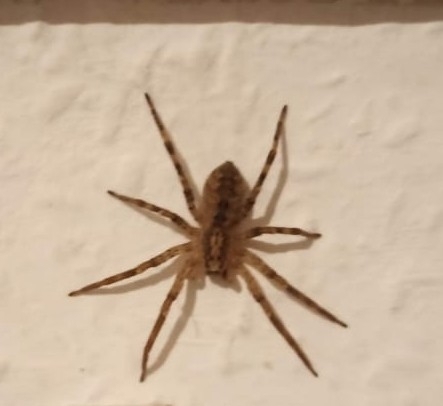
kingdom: Animalia
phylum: Arthropoda
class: Arachnida
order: Araneae
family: Zoropsidae
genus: Zoropsis
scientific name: Zoropsis spinimana
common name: Zoropsid spider
